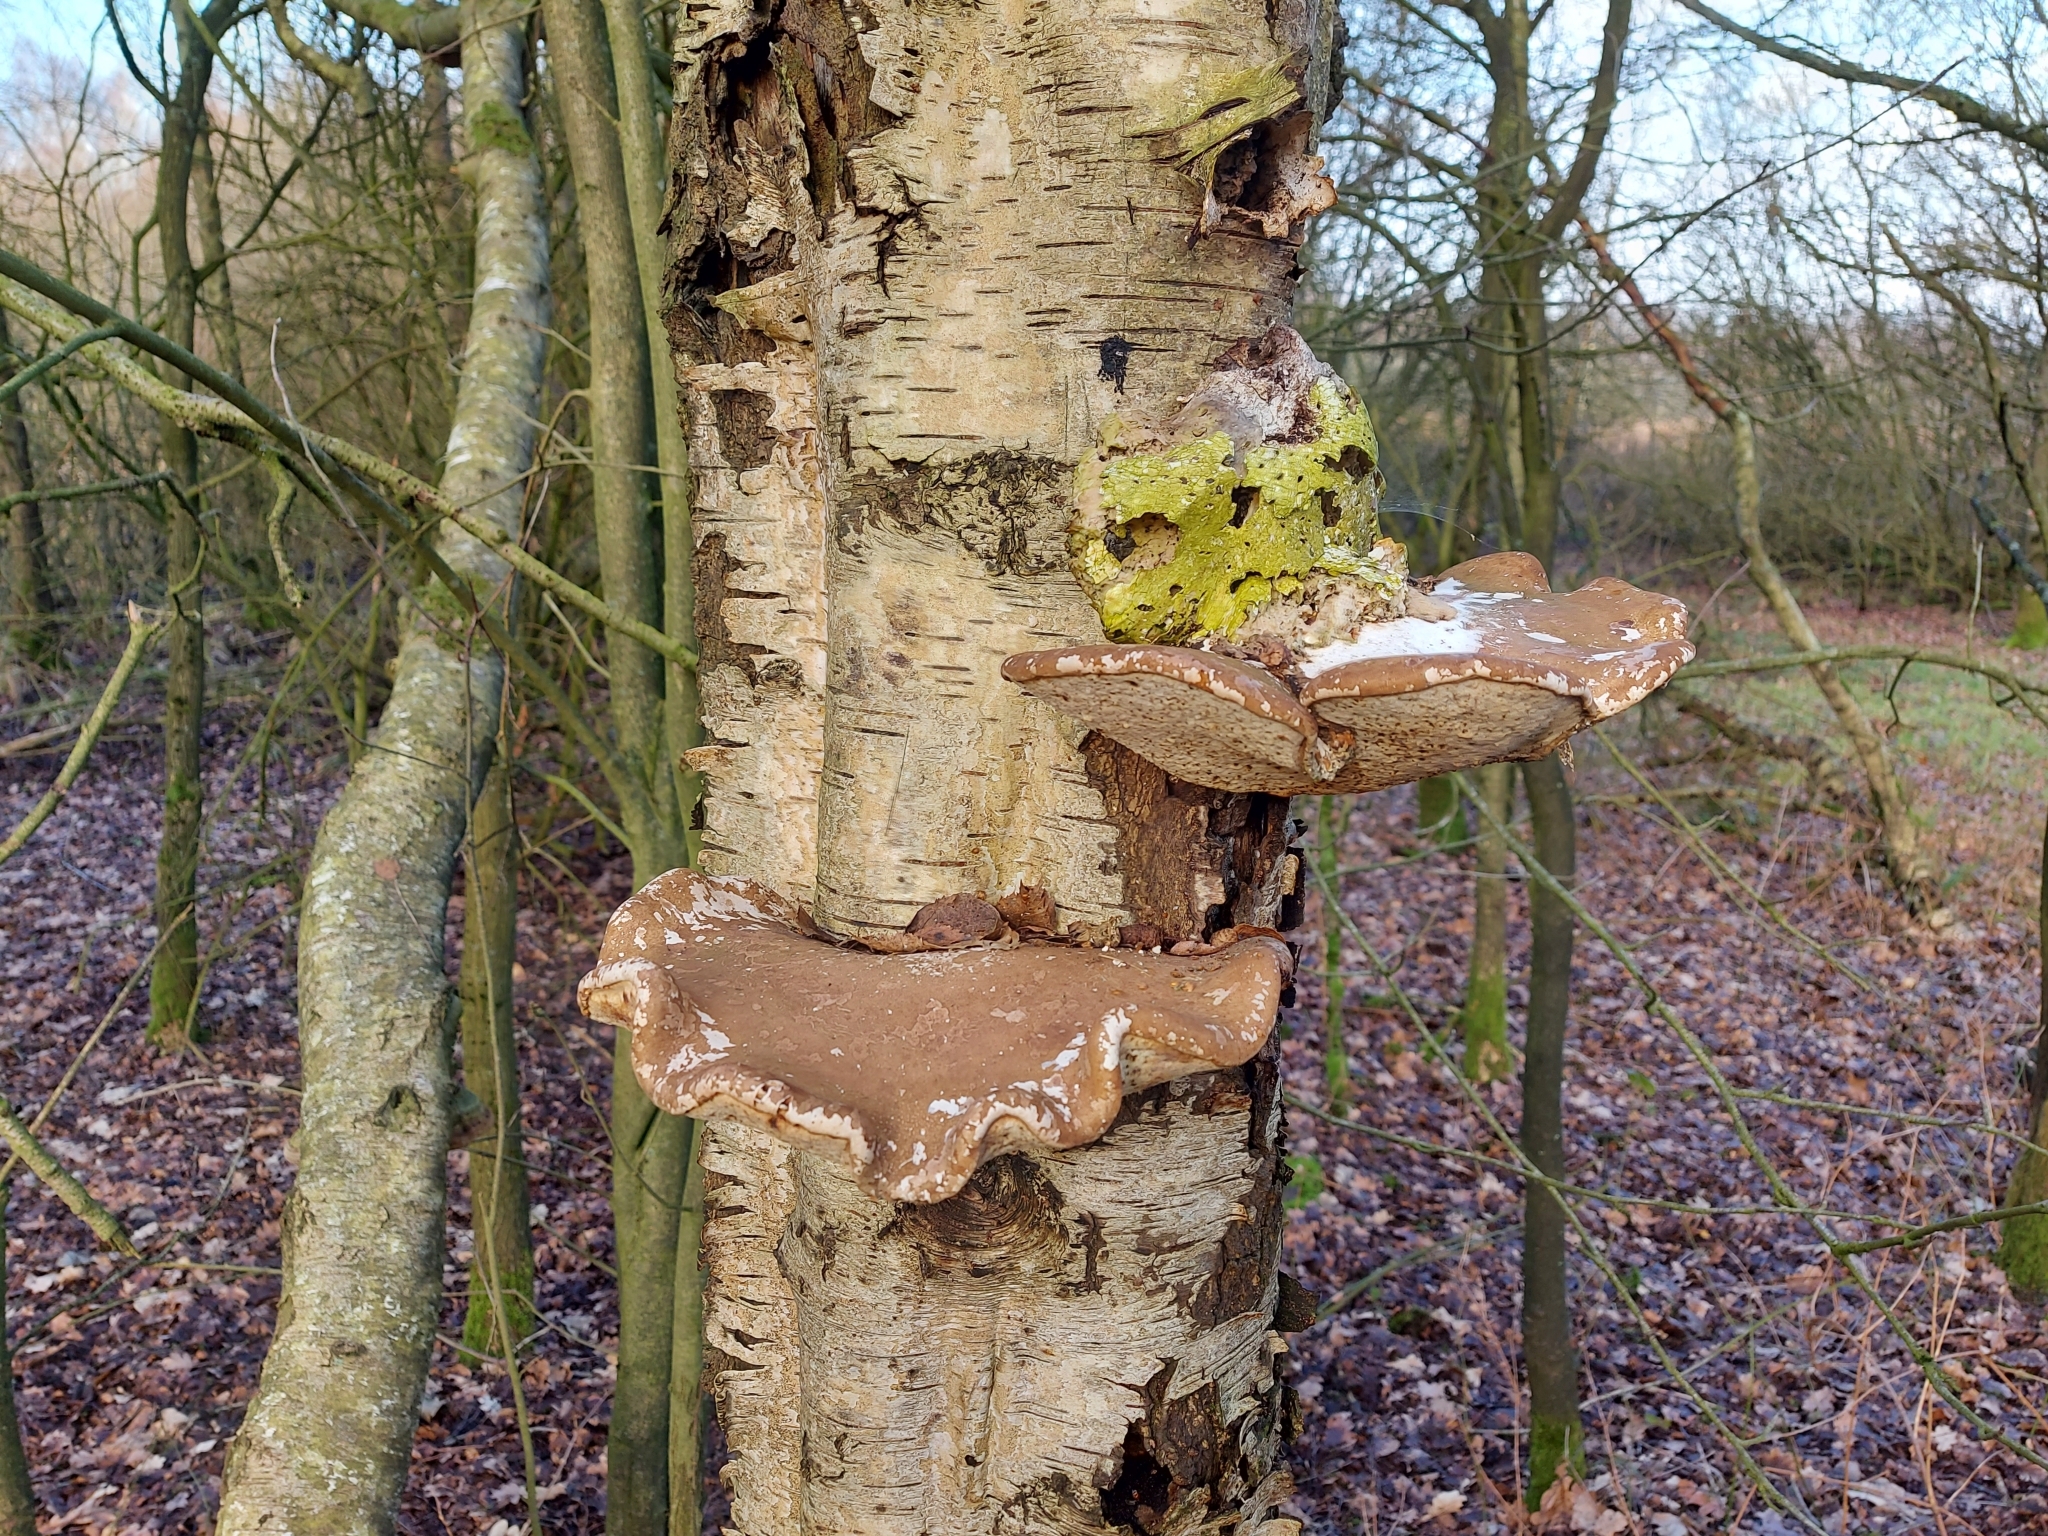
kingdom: Fungi
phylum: Basidiomycota
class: Agaricomycetes
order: Polyporales
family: Fomitopsidaceae
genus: Fomitopsis
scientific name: Fomitopsis betulina
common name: Birch polypore
